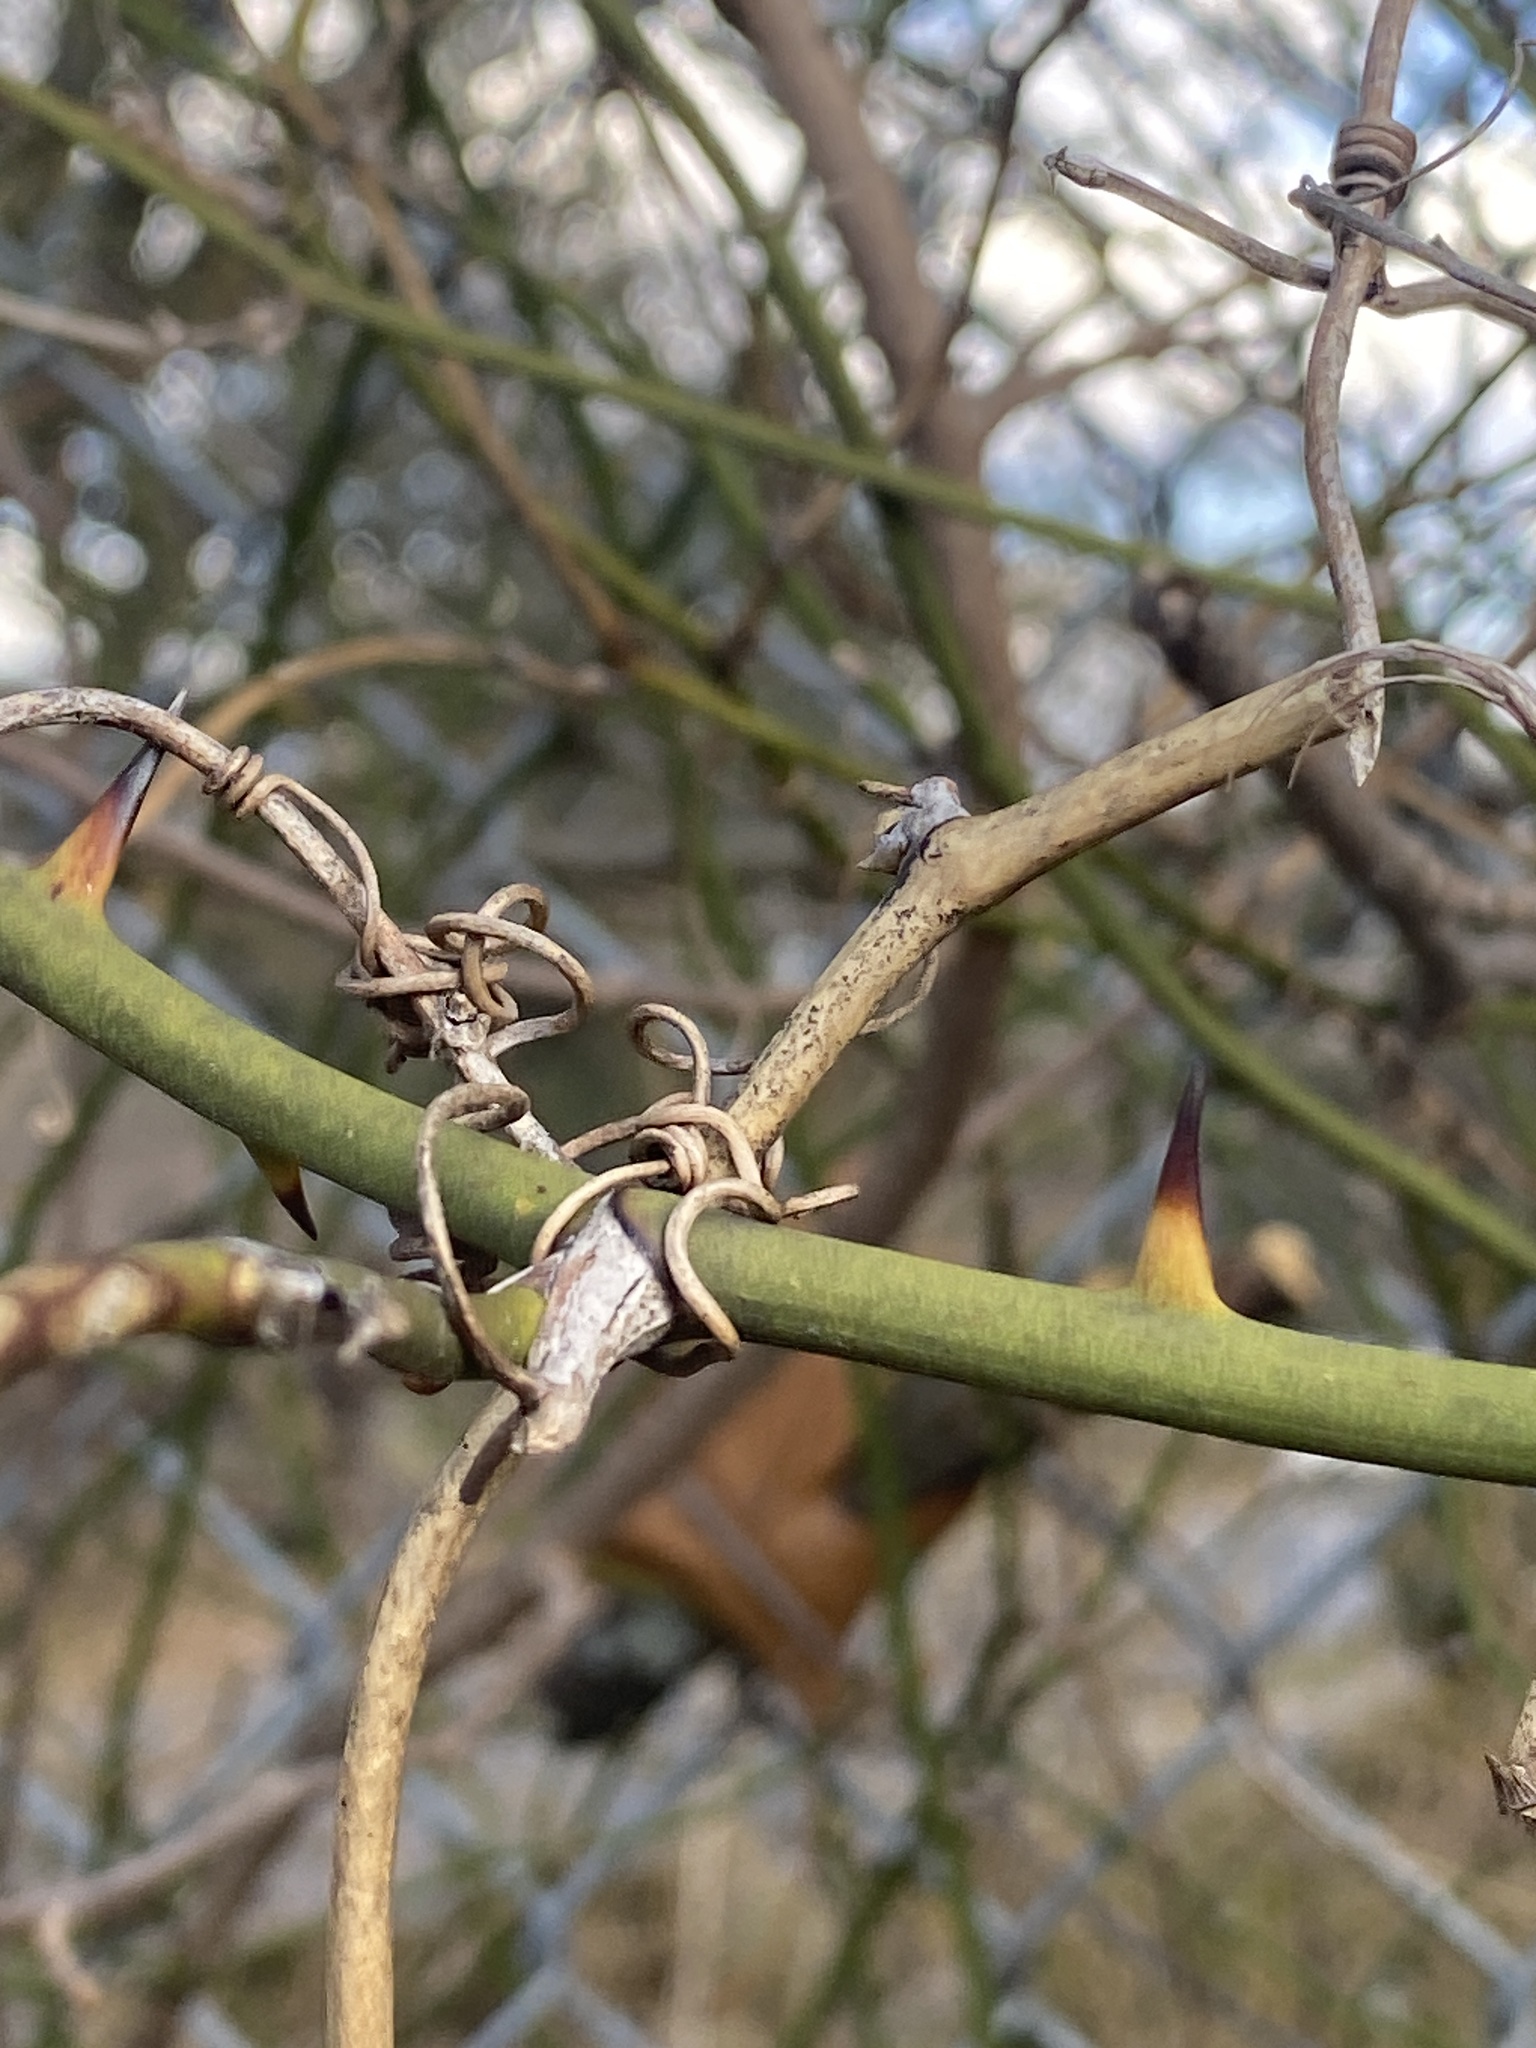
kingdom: Plantae
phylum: Tracheophyta
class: Liliopsida
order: Liliales
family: Smilacaceae
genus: Smilax
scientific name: Smilax rotundifolia
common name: Bullbriar
